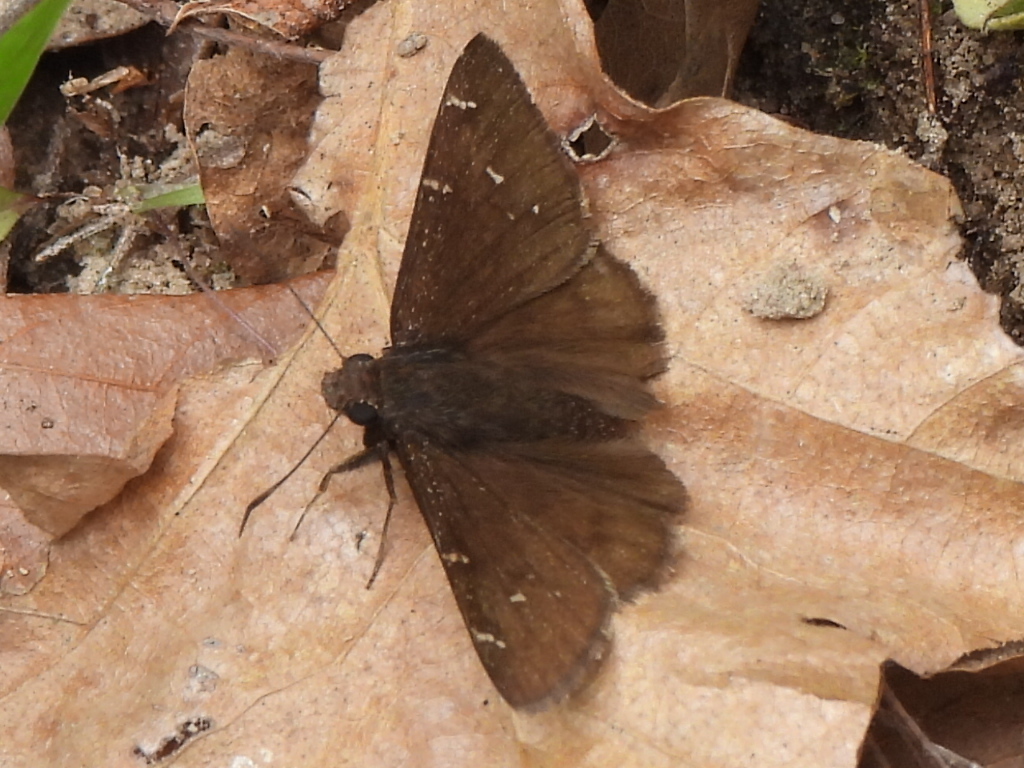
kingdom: Animalia
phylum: Arthropoda
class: Insecta
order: Lepidoptera
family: Hesperiidae
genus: Thorybes
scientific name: Thorybes pylades
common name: Northern cloudywing
